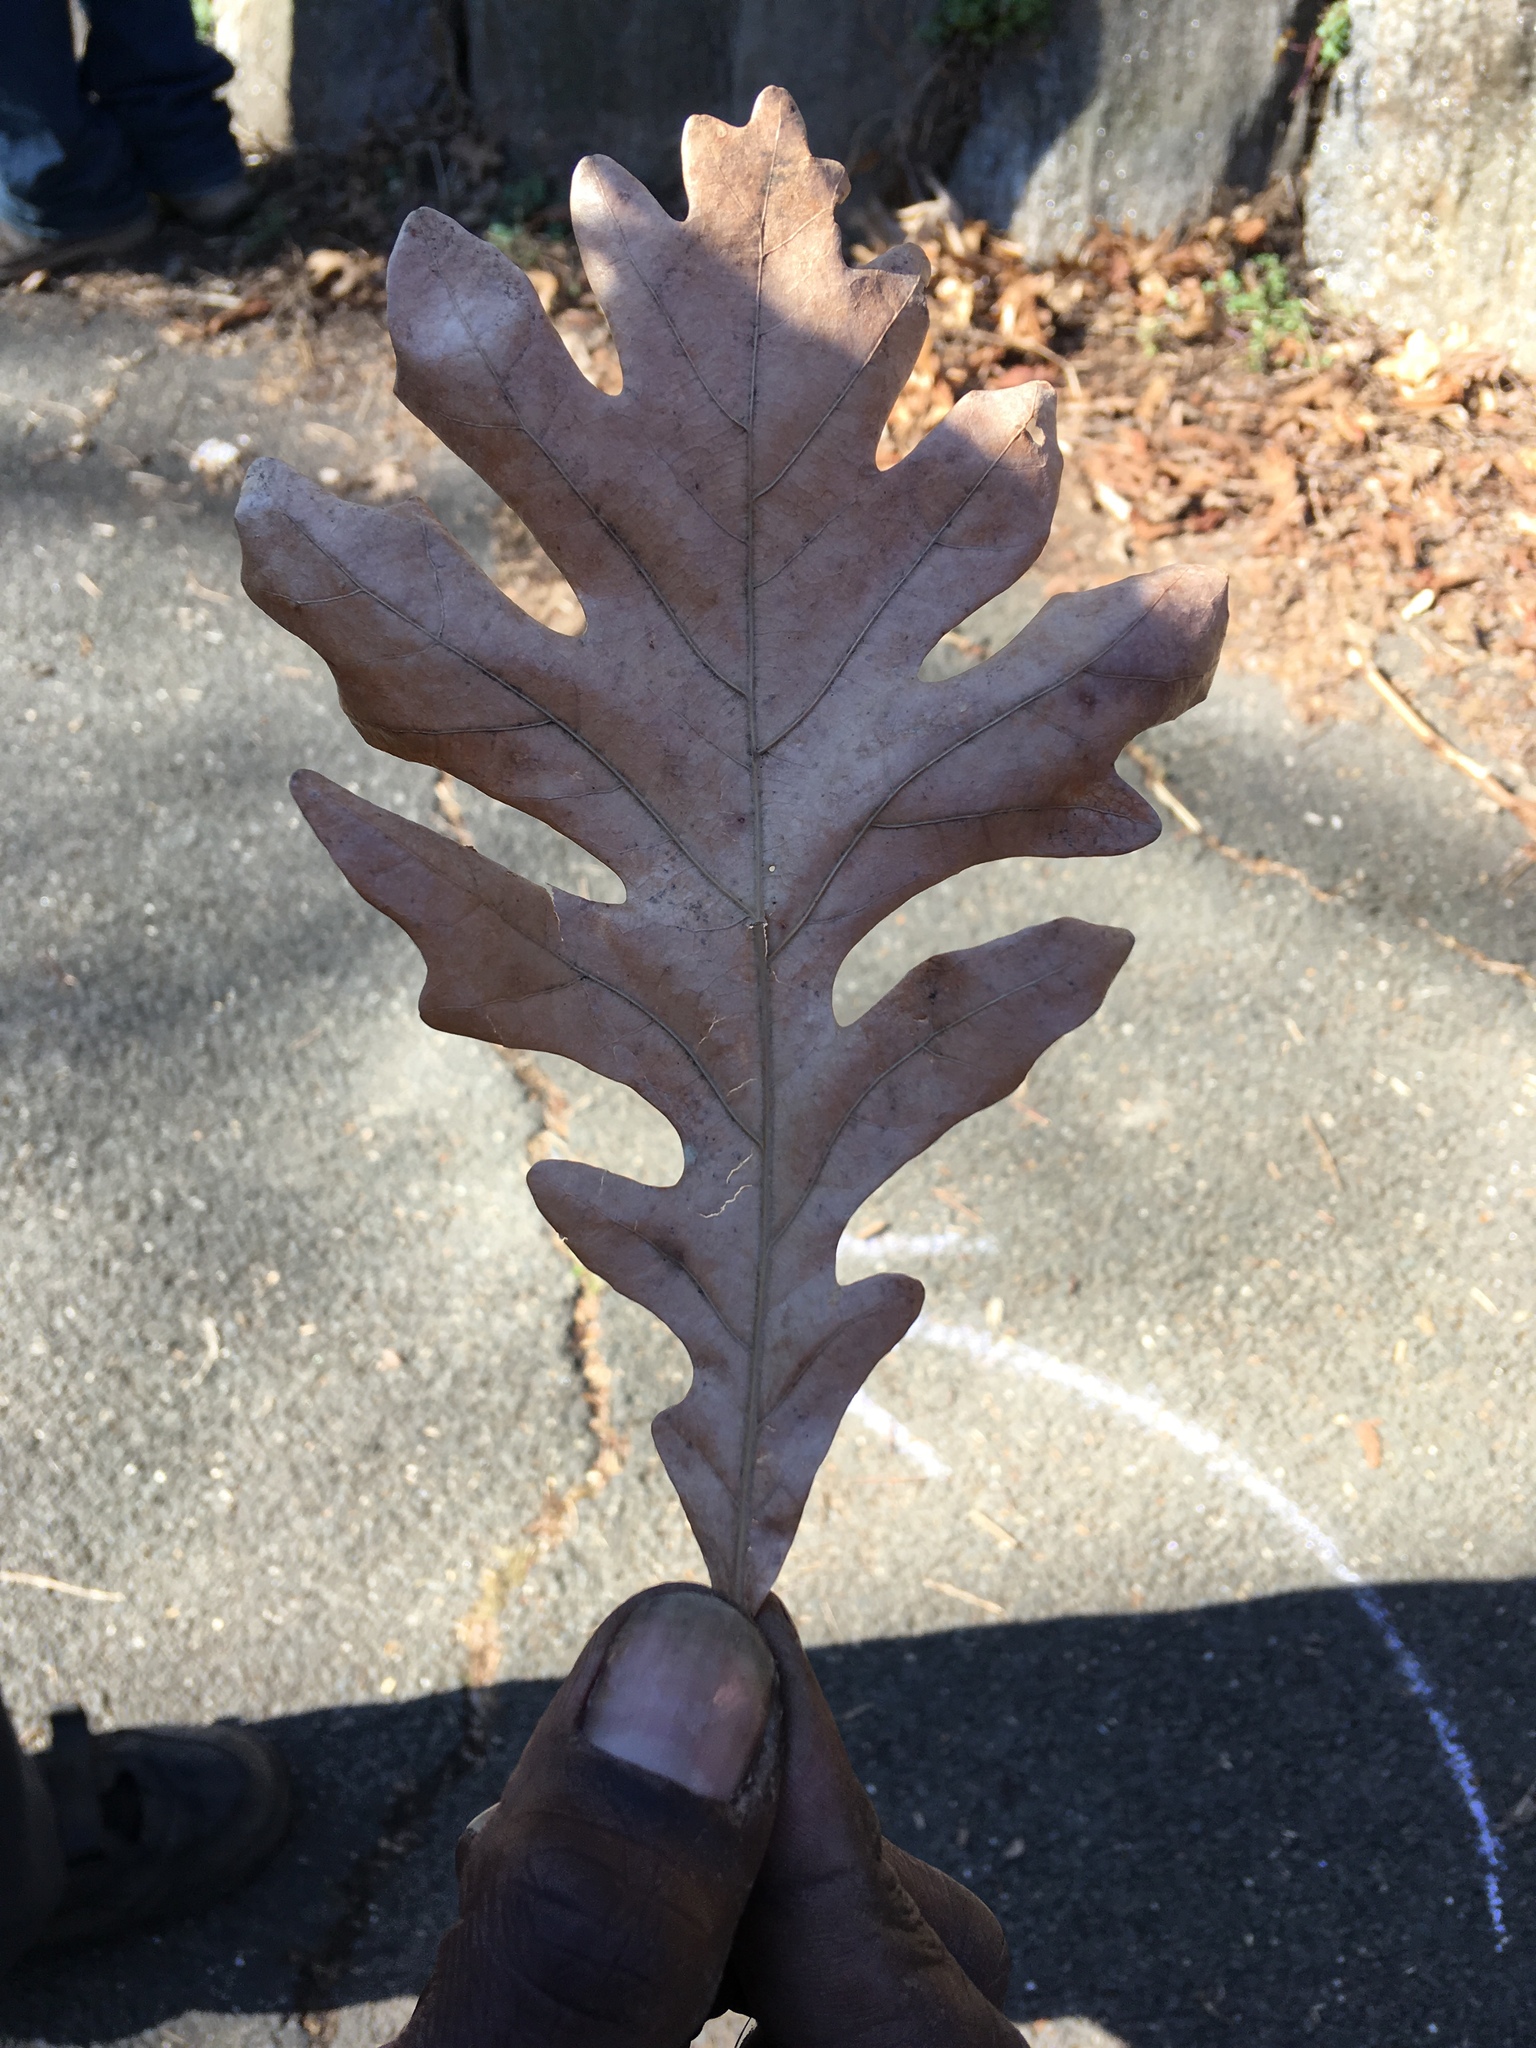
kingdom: Plantae
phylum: Tracheophyta
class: Magnoliopsida
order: Fagales
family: Fagaceae
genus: Quercus
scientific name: Quercus alba
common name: White oak
